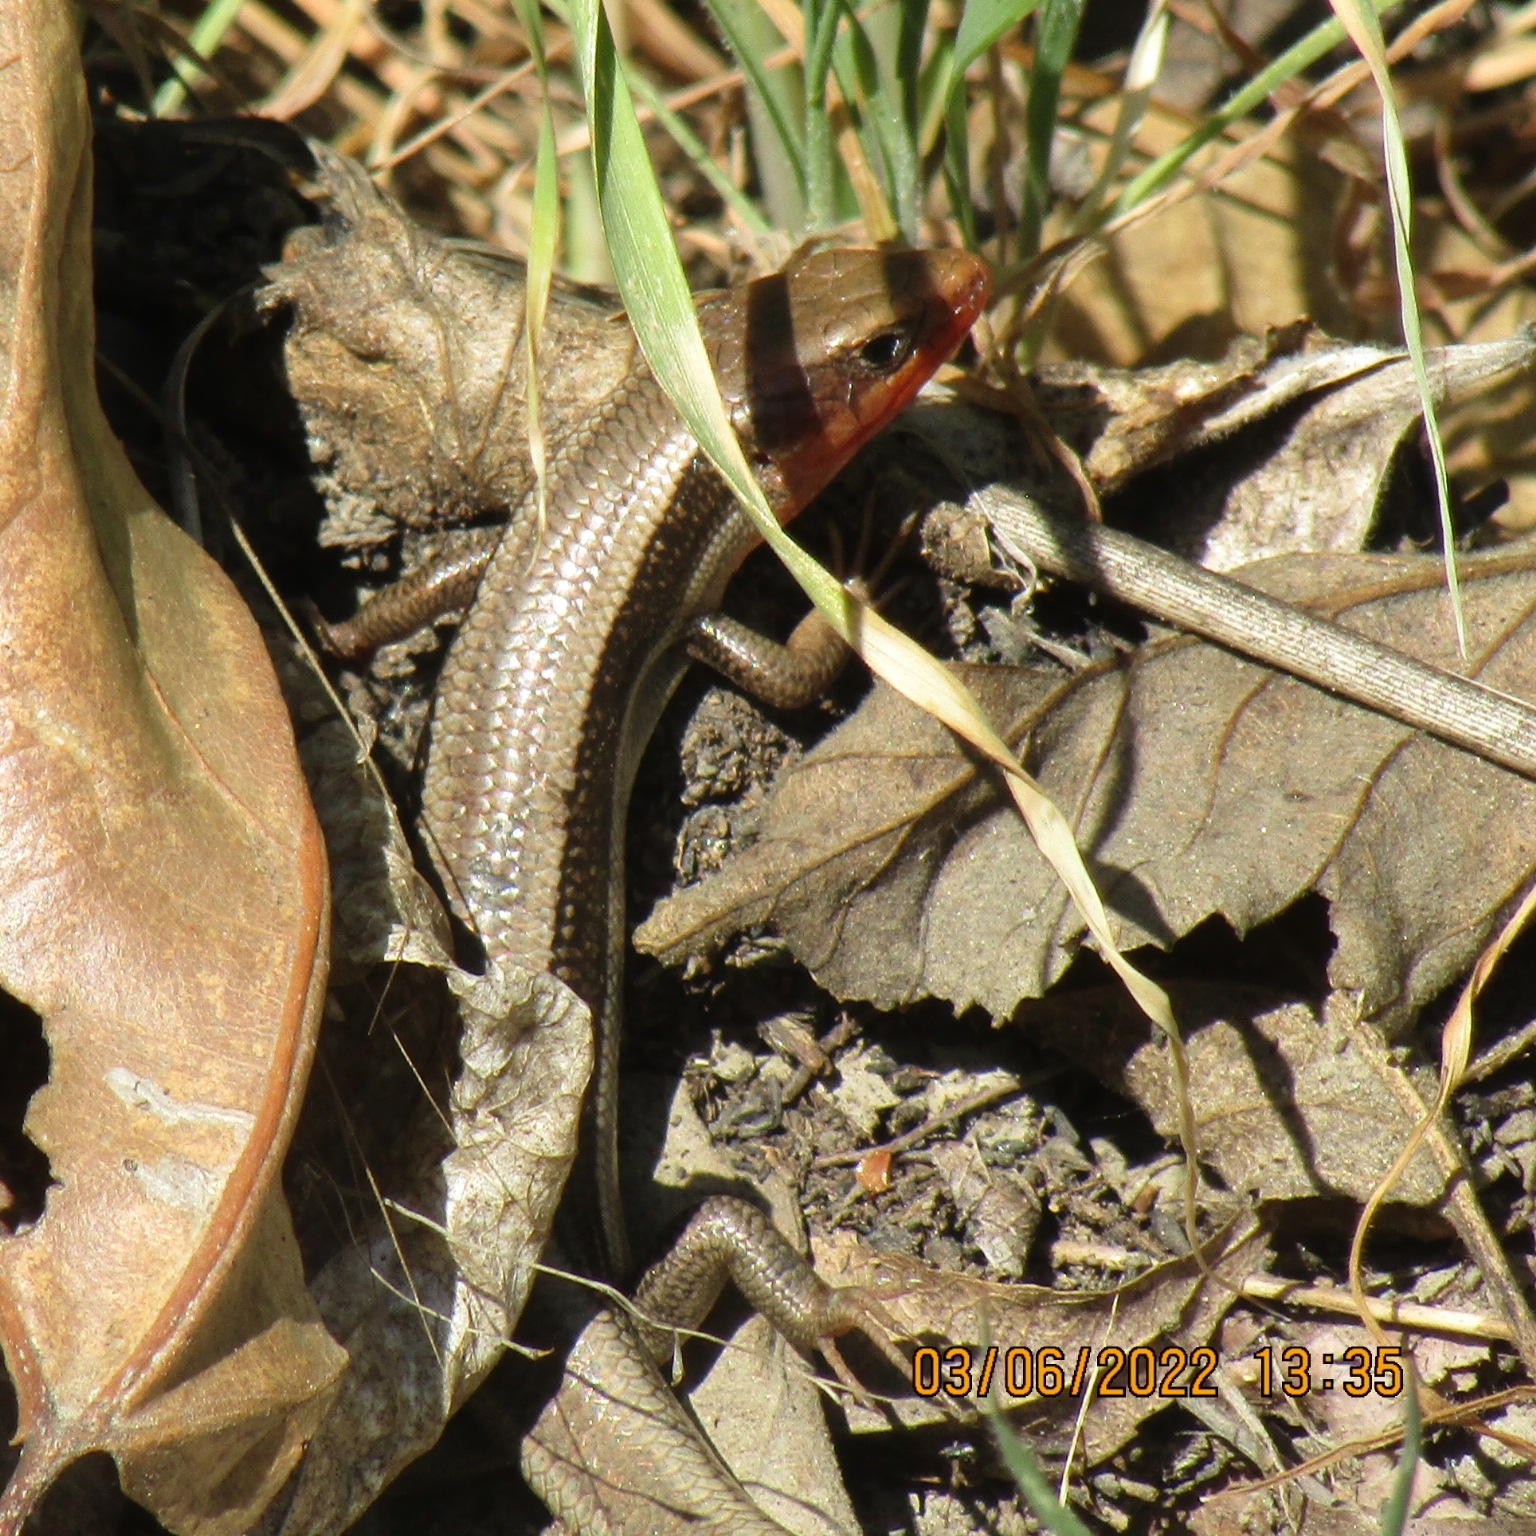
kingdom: Animalia
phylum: Chordata
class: Squamata
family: Scincidae
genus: Plestiodon
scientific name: Plestiodon skiltonianus
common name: Coronado island skink [interparietalis]
